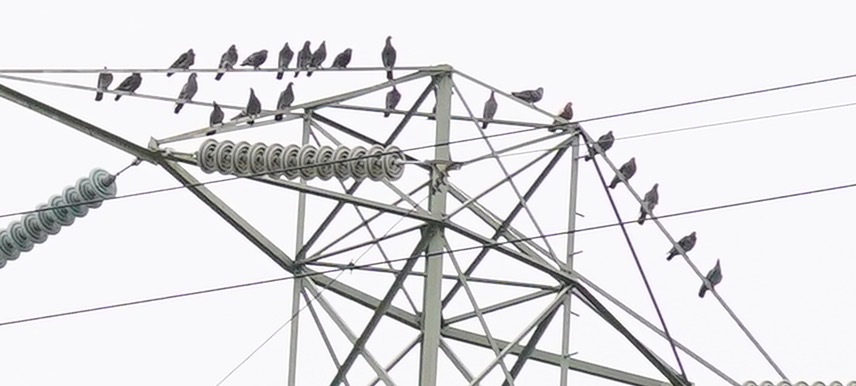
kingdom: Animalia
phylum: Chordata
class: Aves
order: Columbiformes
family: Columbidae
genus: Columba
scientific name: Columba livia
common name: Rock pigeon
